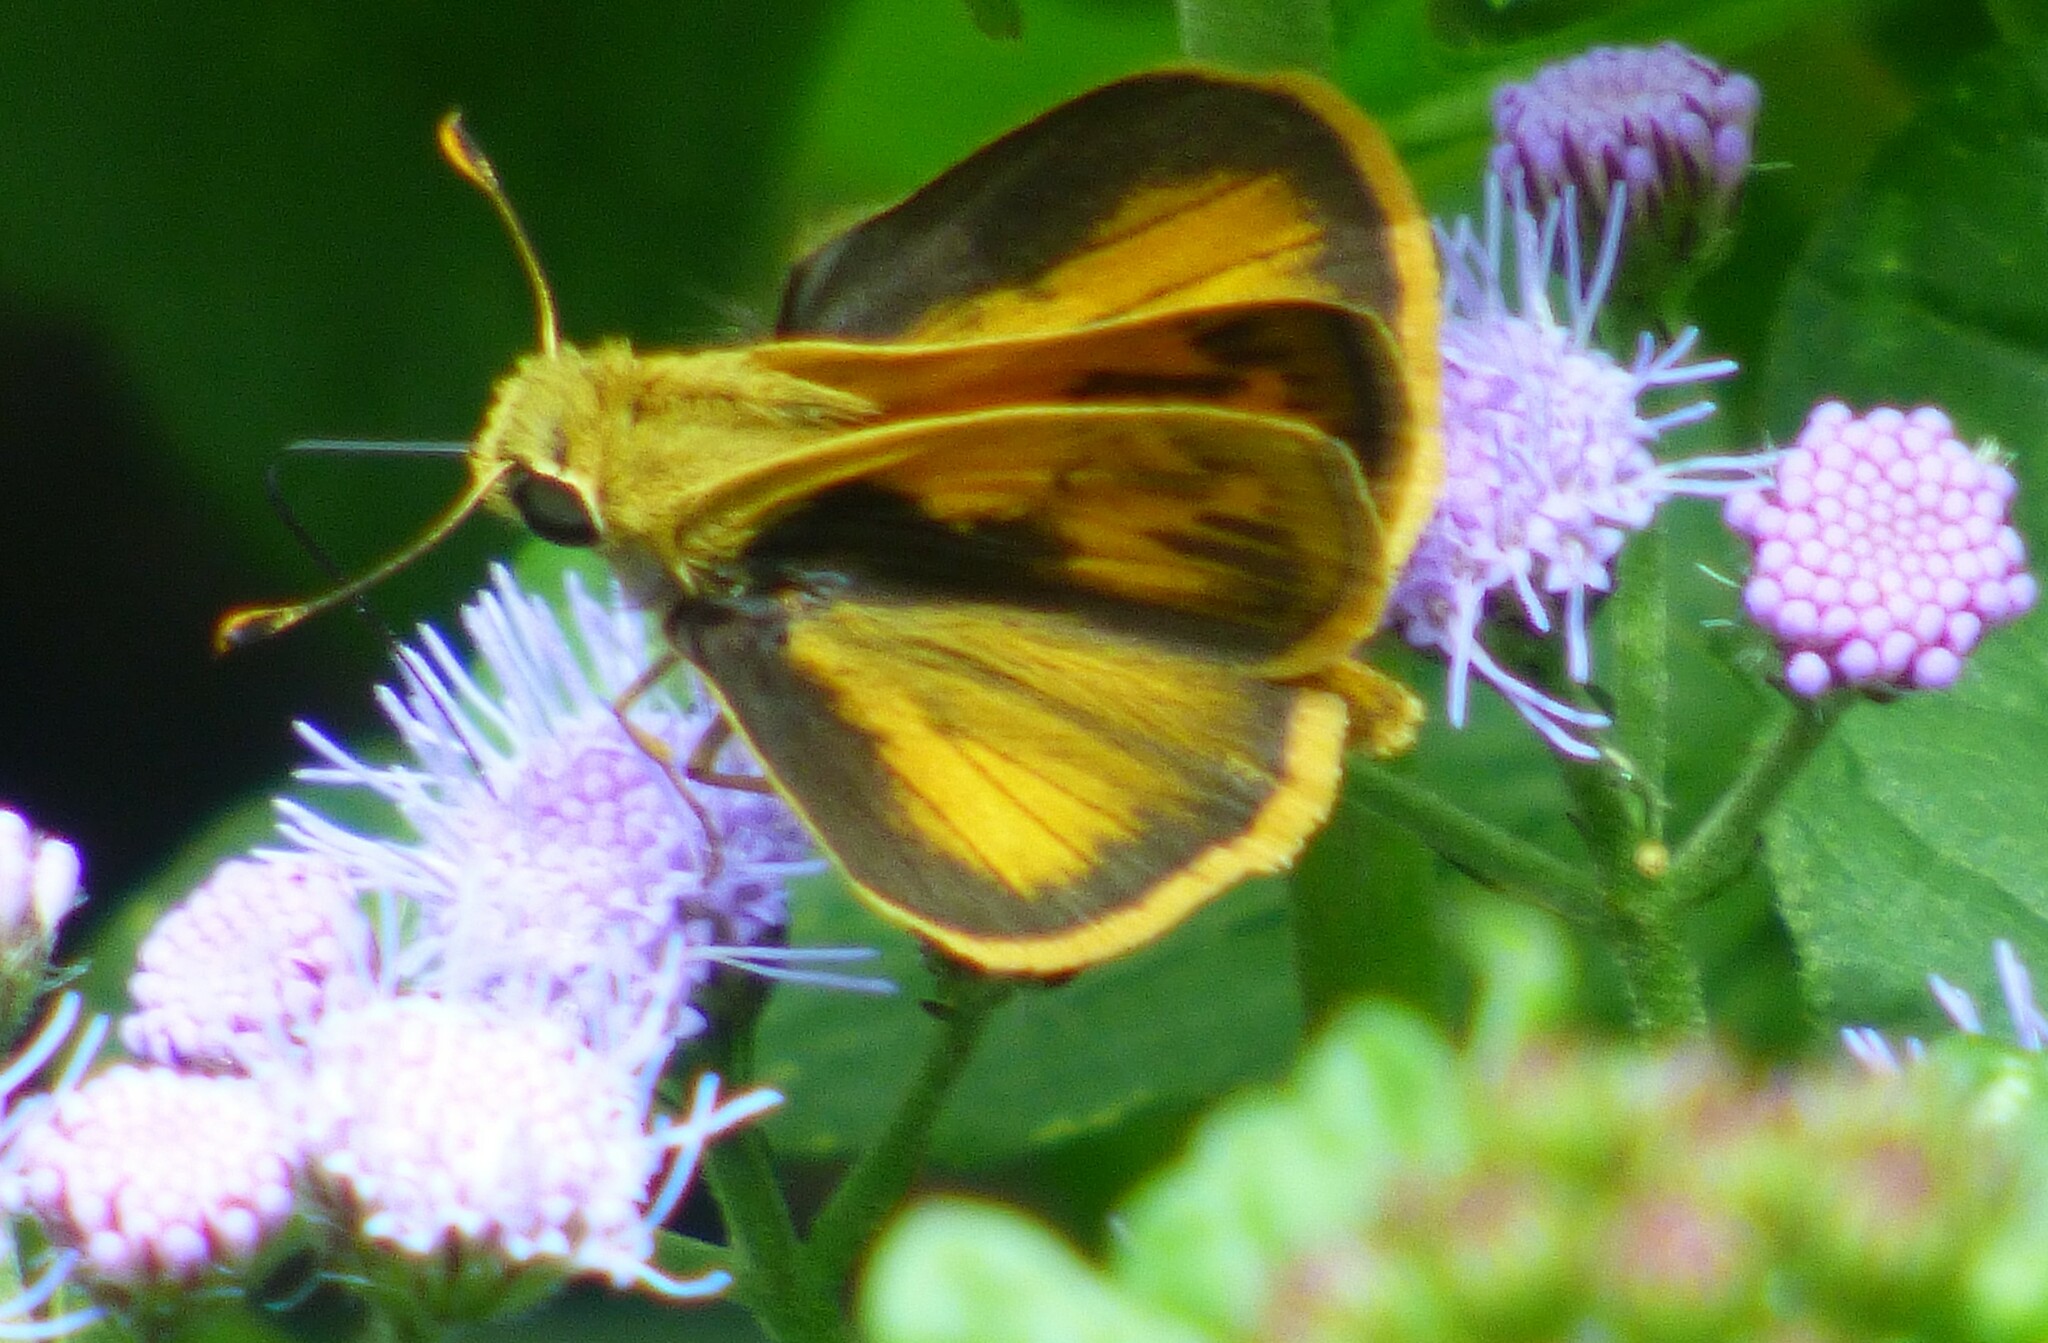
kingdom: Animalia
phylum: Arthropoda
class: Insecta
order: Lepidoptera
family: Hesperiidae
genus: Polites
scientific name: Polites vibex
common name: Whirlabout
